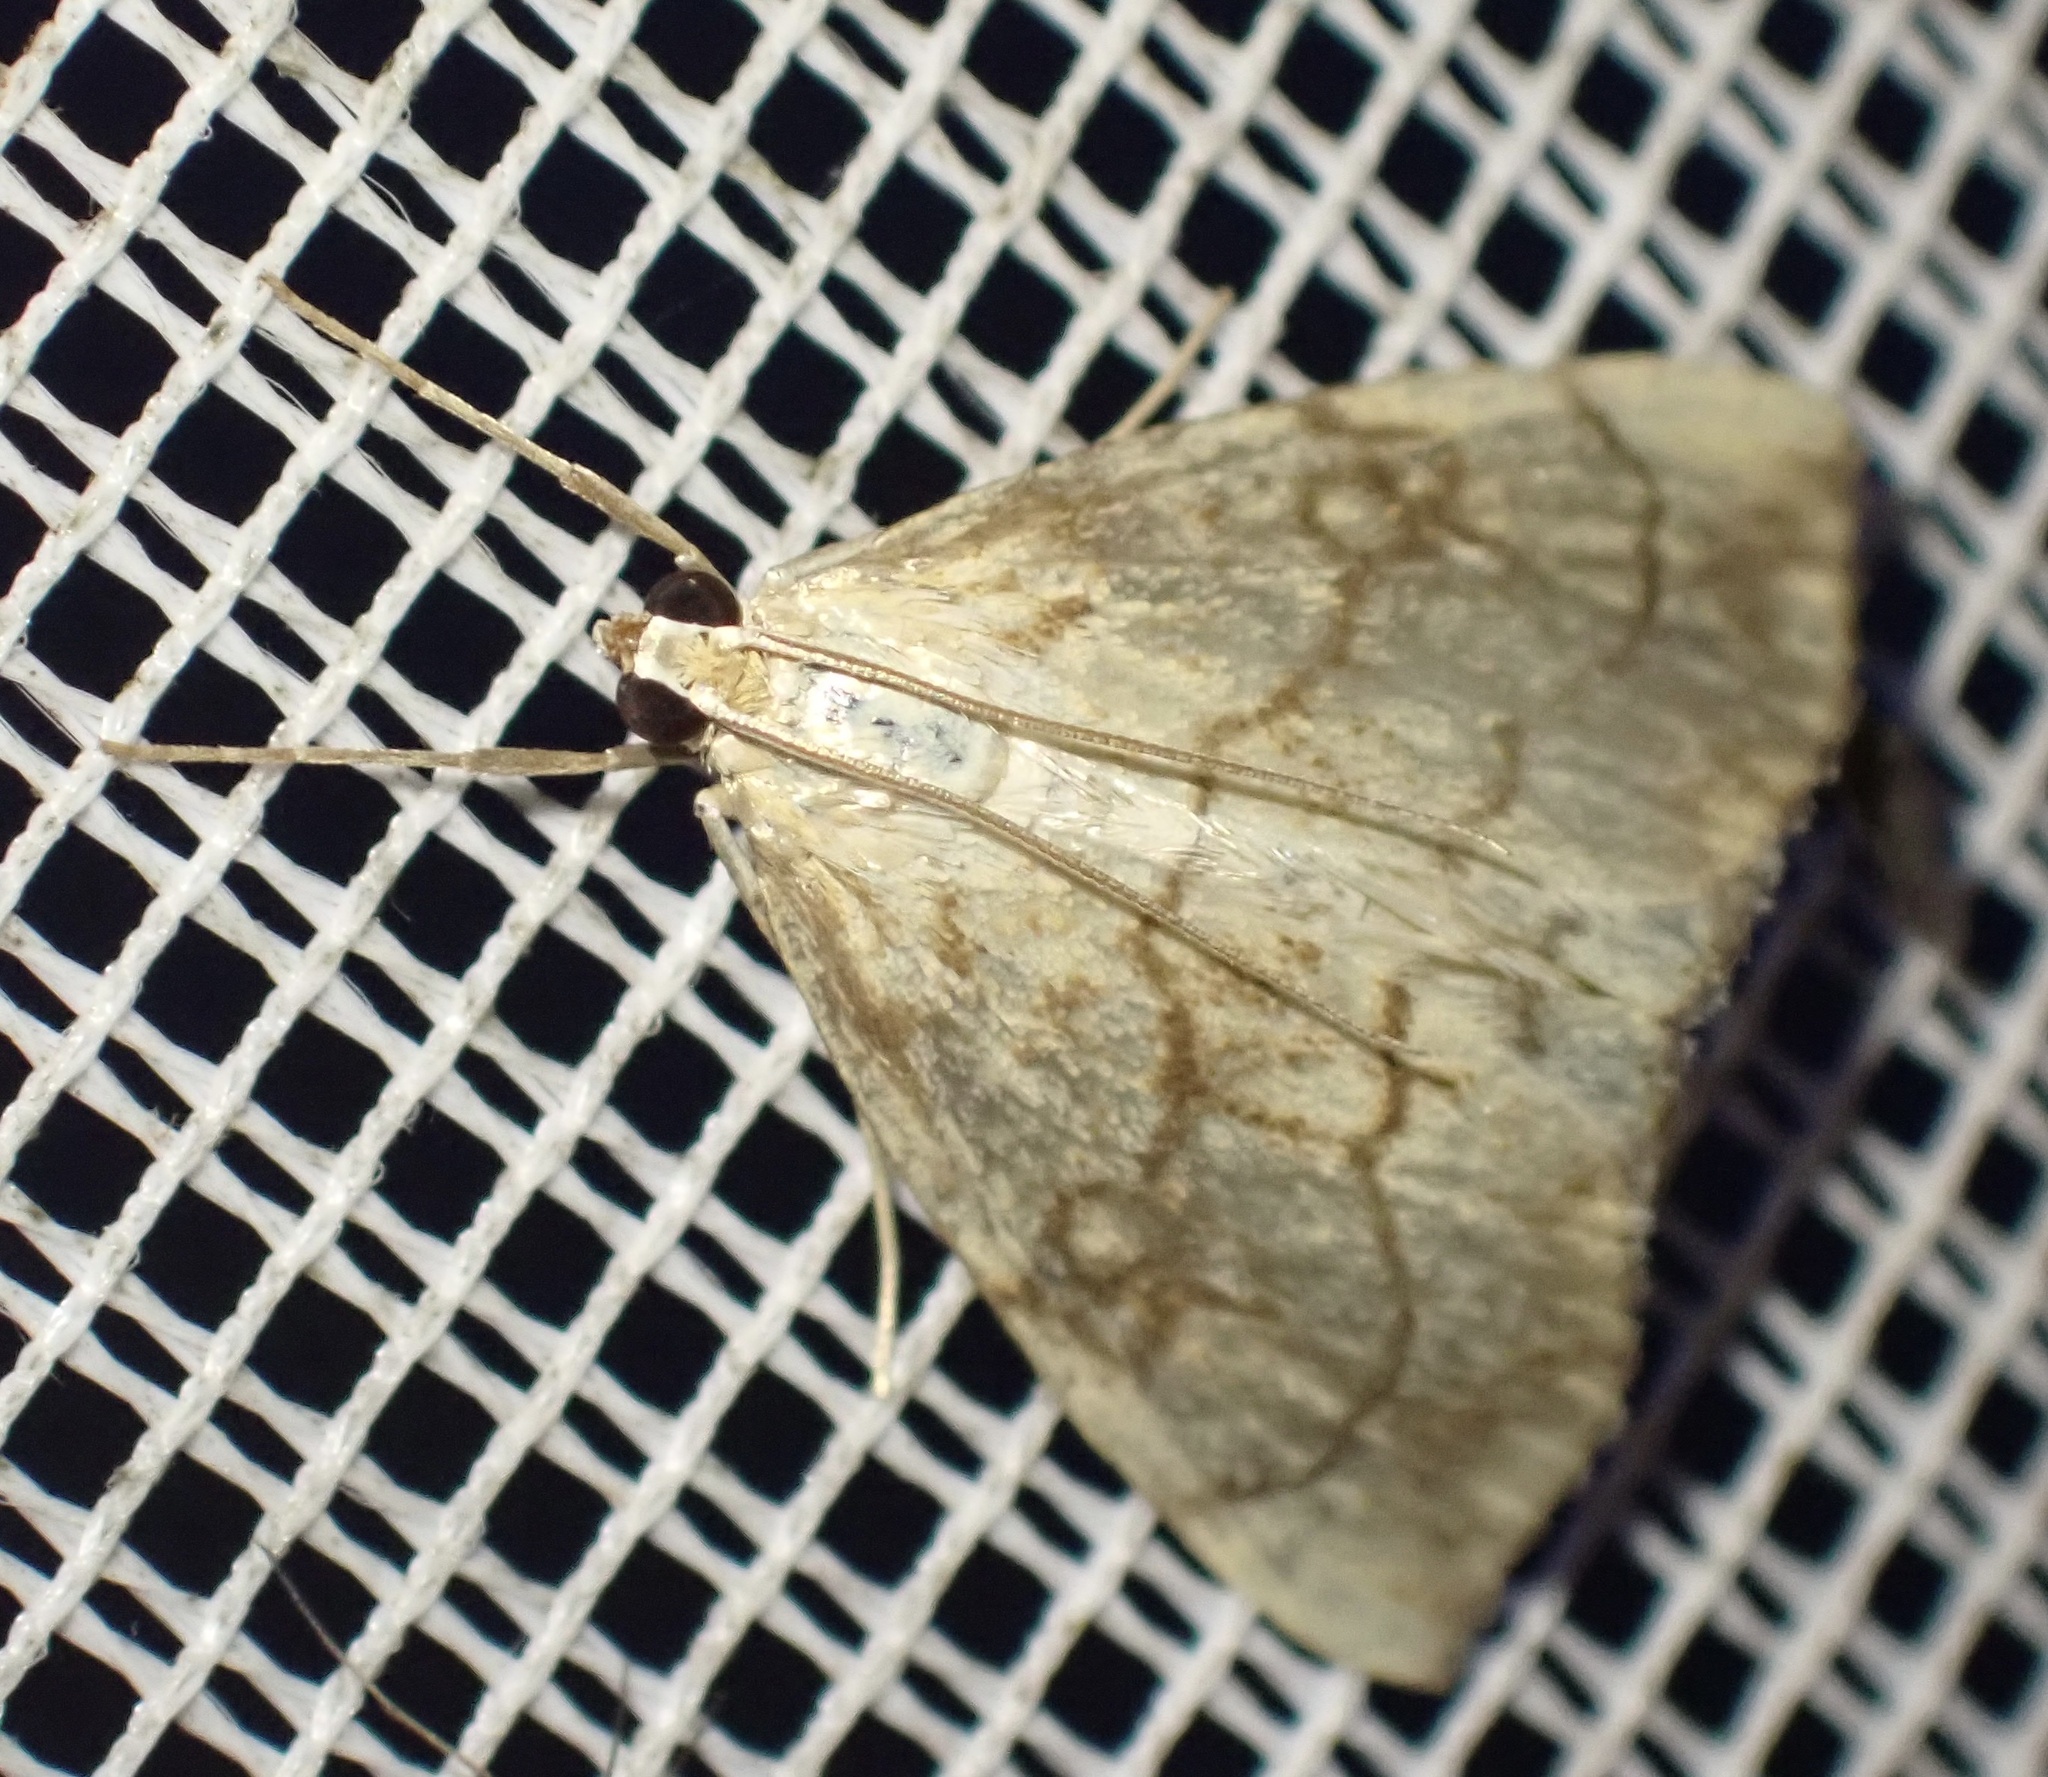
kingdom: Animalia
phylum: Arthropoda
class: Insecta
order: Lepidoptera
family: Crambidae
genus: Evergestis
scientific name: Evergestis pallidata
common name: Chequered pearl
